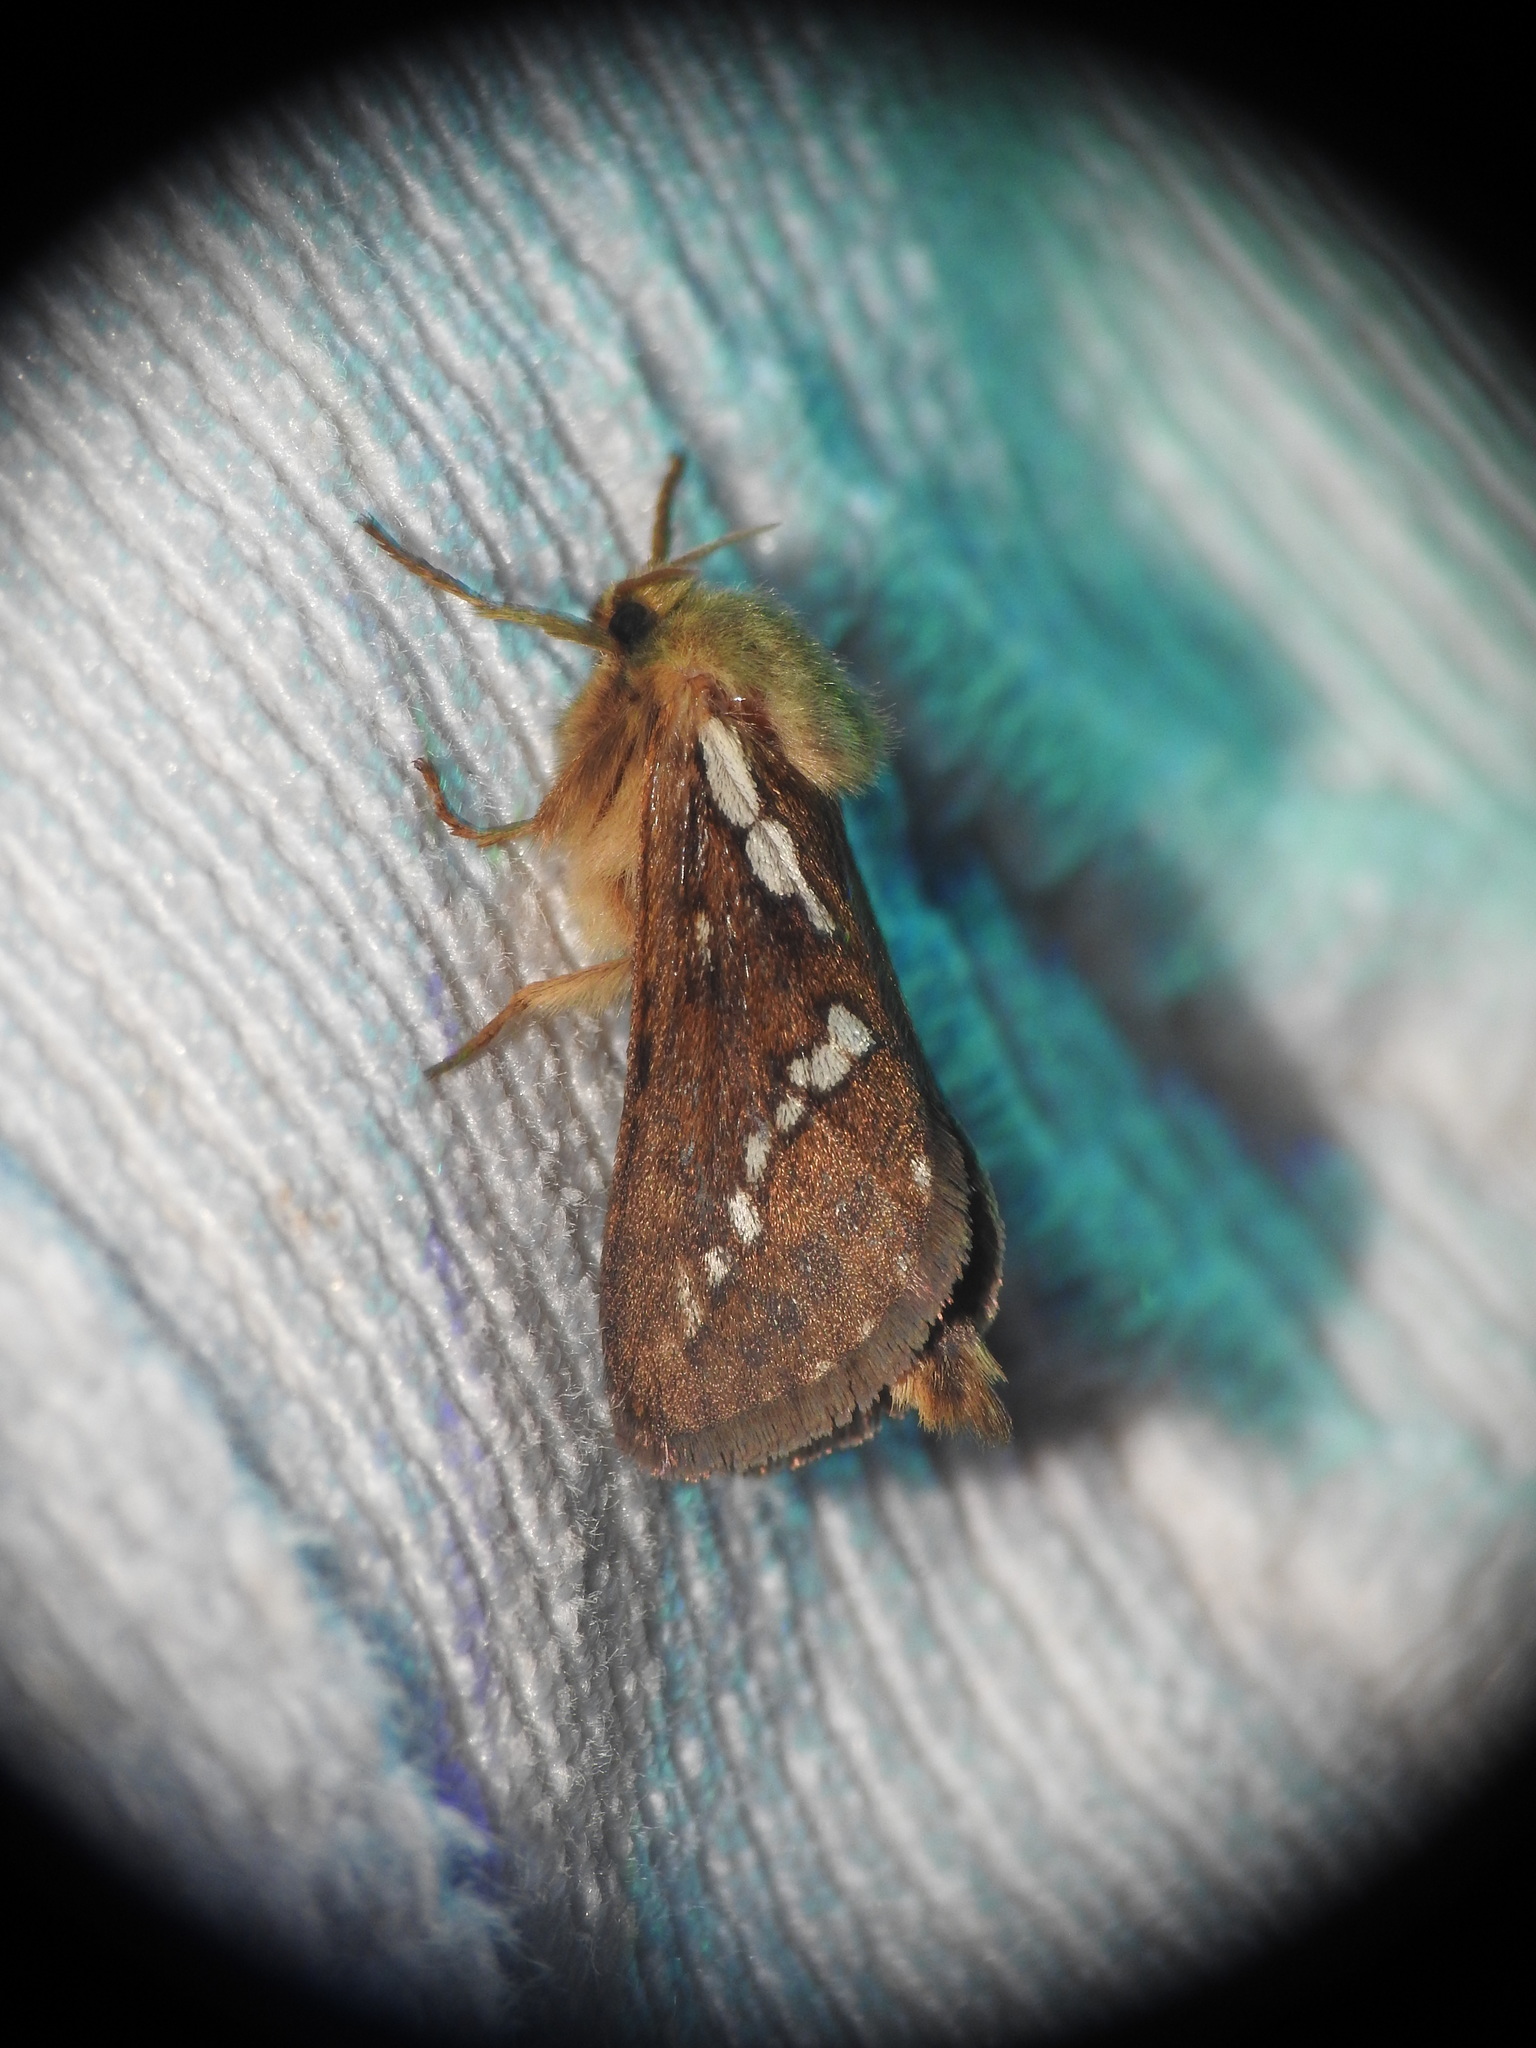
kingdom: Animalia
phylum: Arthropoda
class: Insecta
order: Lepidoptera
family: Hepialidae
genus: Korscheltellus
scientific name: Korscheltellus lupulina
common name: Common swift
